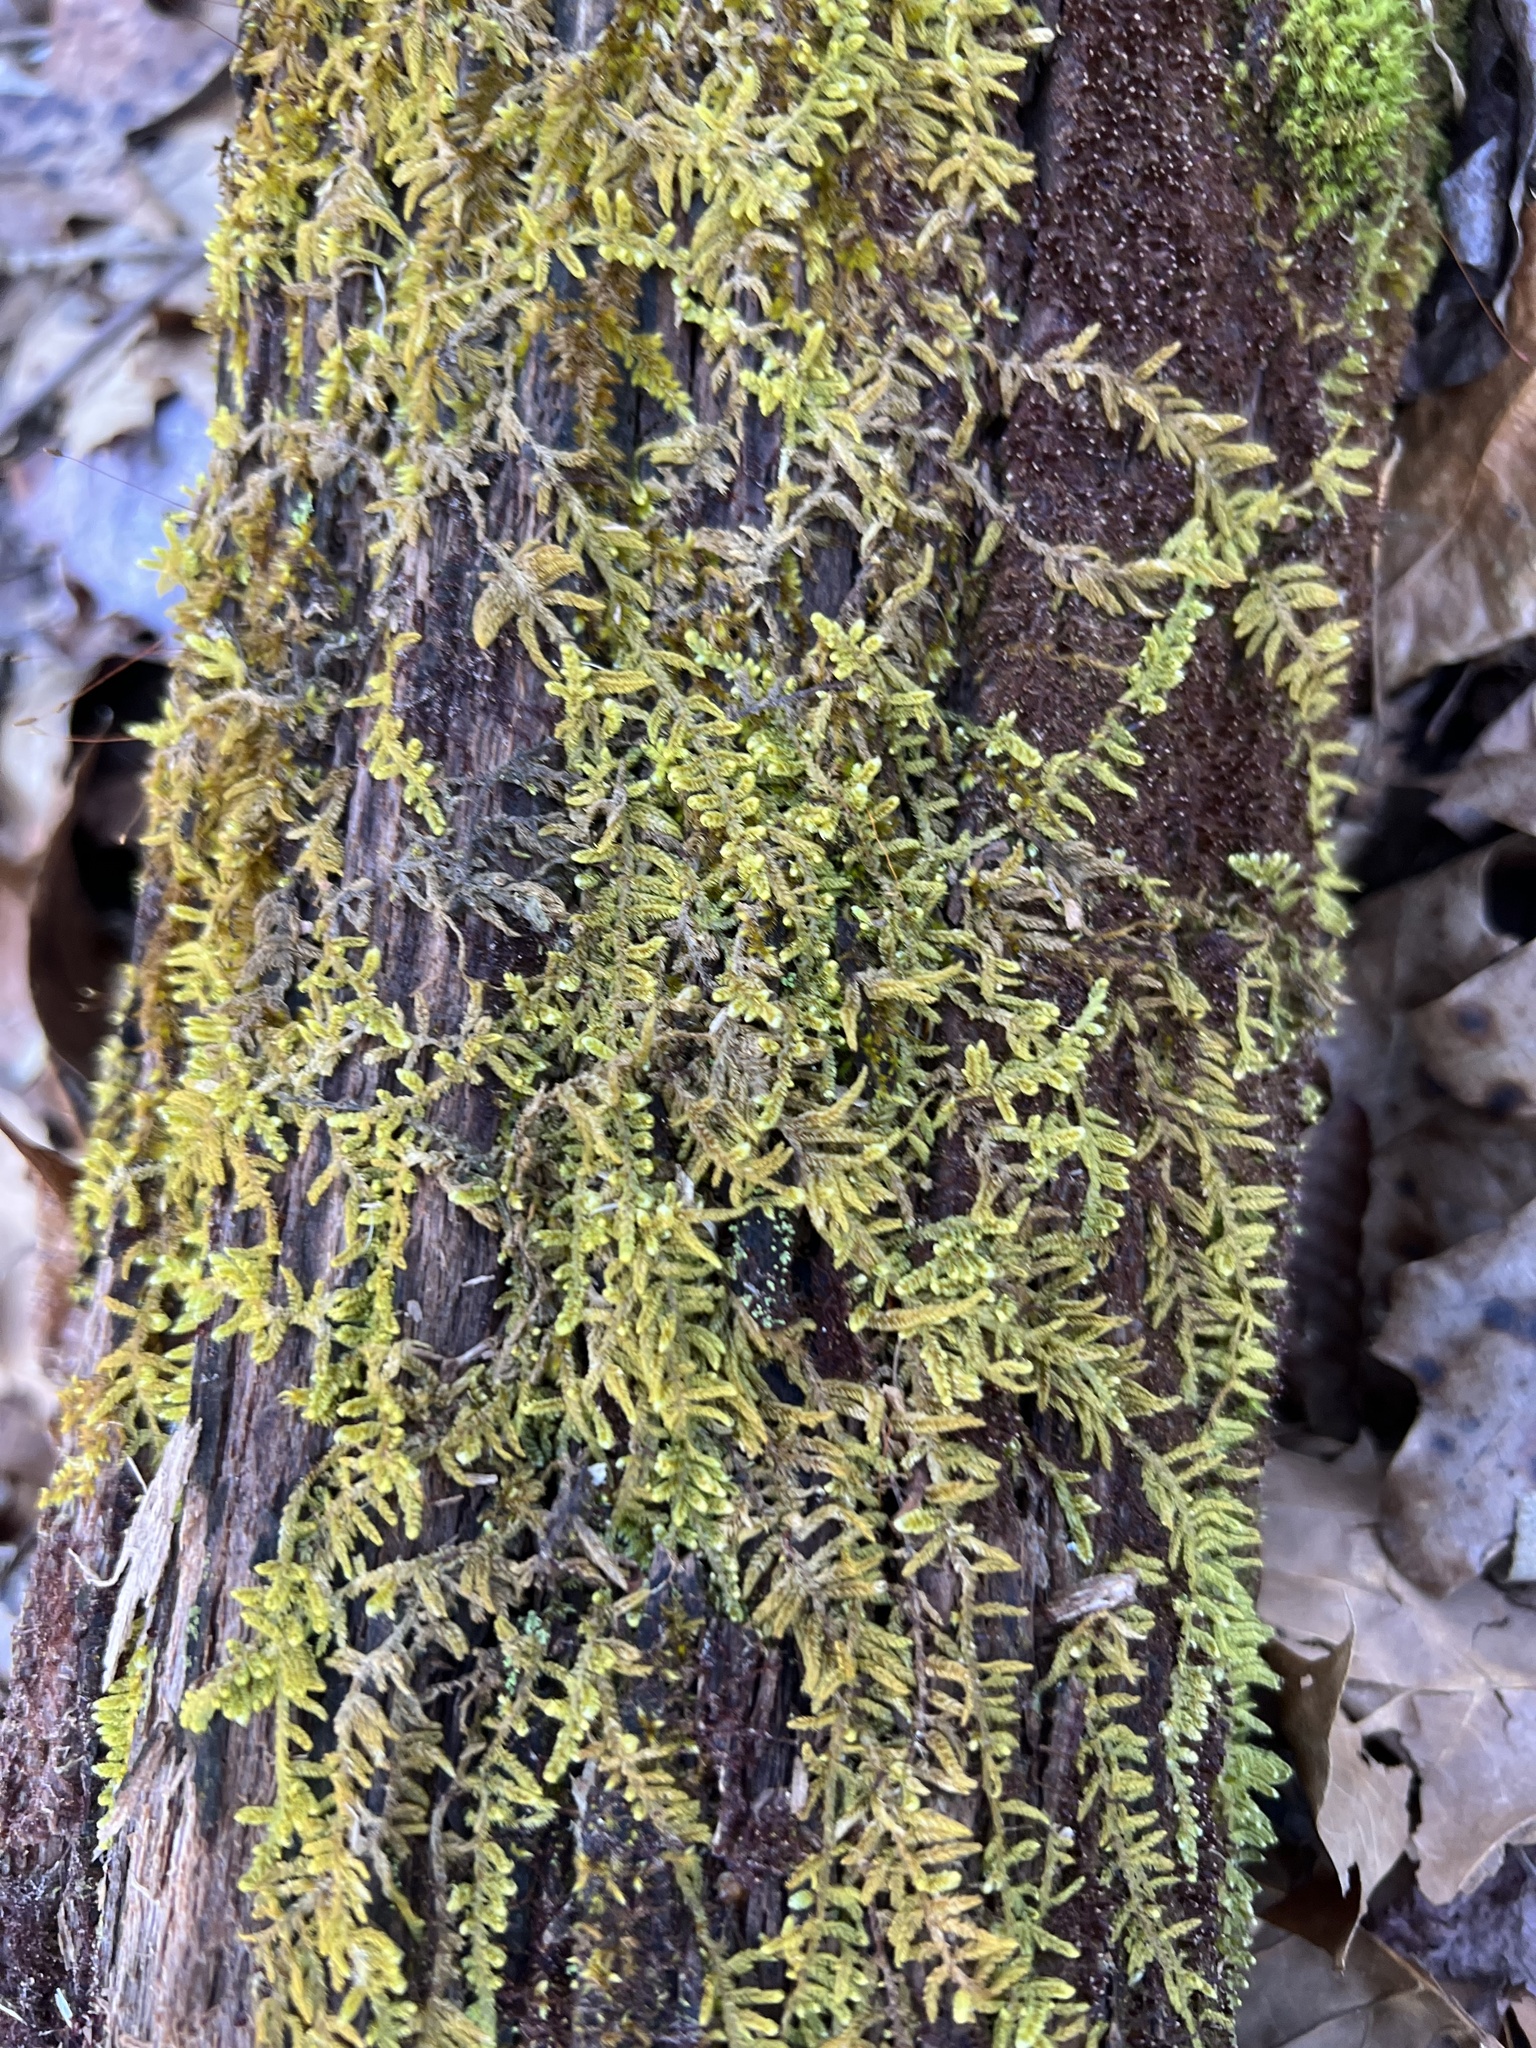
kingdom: Plantae
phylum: Bryophyta
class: Bryopsida
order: Hypnales
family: Callicladiaceae
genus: Callicladium
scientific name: Callicladium imponens
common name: Brocade moss
